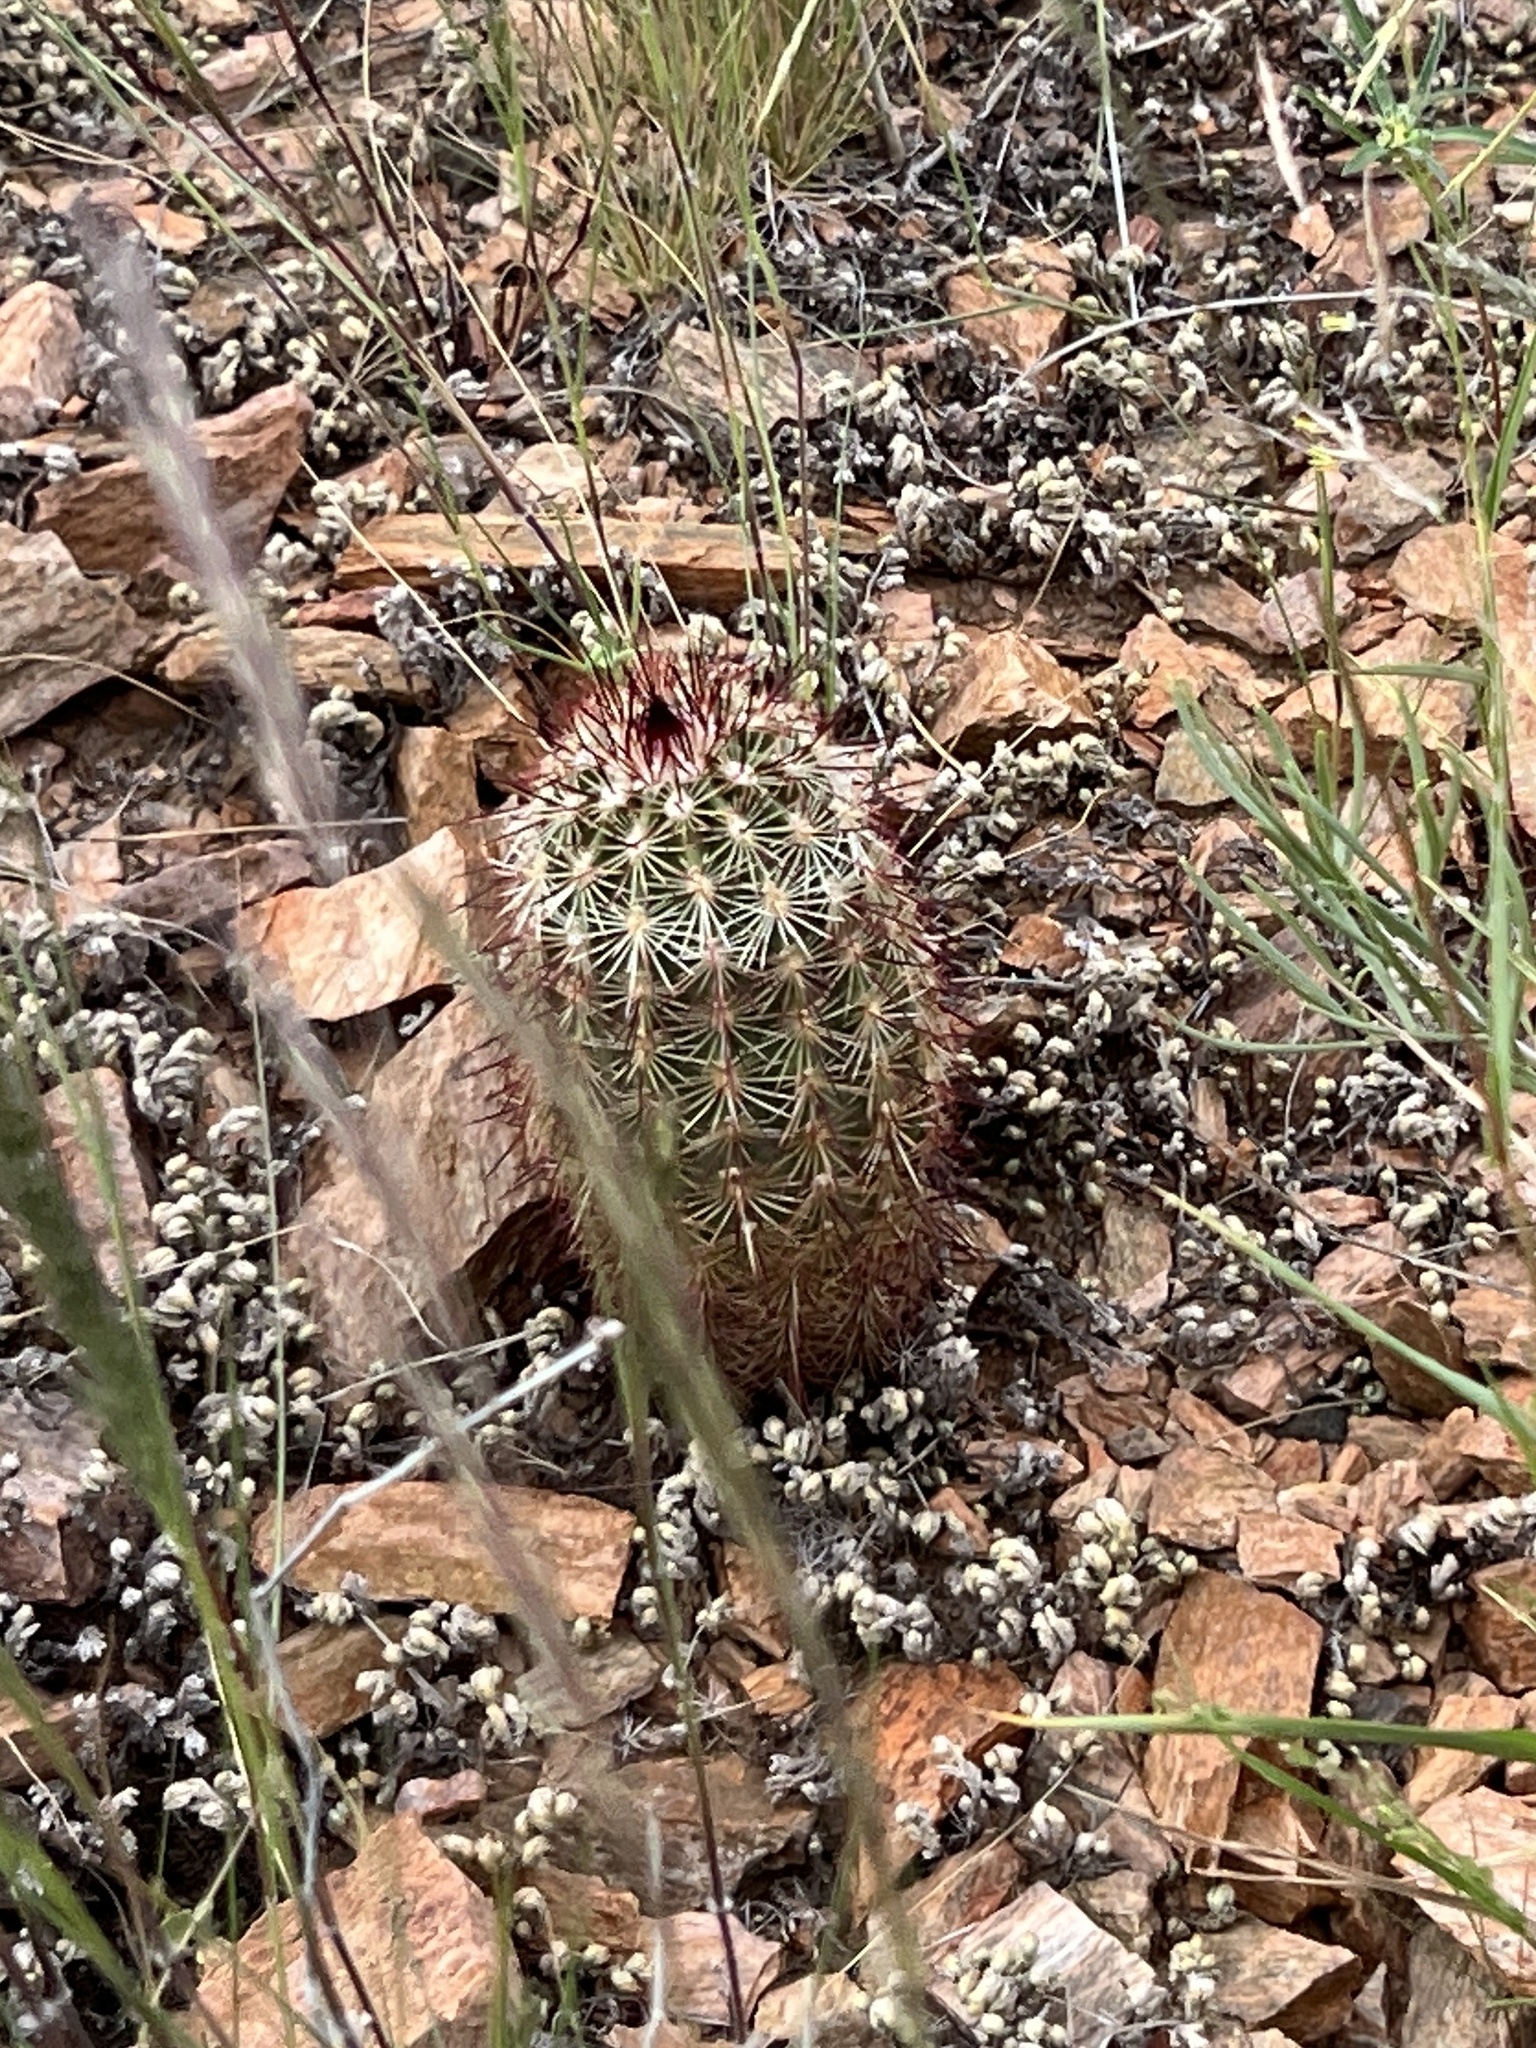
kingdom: Plantae
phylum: Tracheophyta
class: Magnoliopsida
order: Caryophyllales
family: Cactaceae
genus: Echinocereus
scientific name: Echinocereus viridiflorus
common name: Nylon hedgehog cactus
